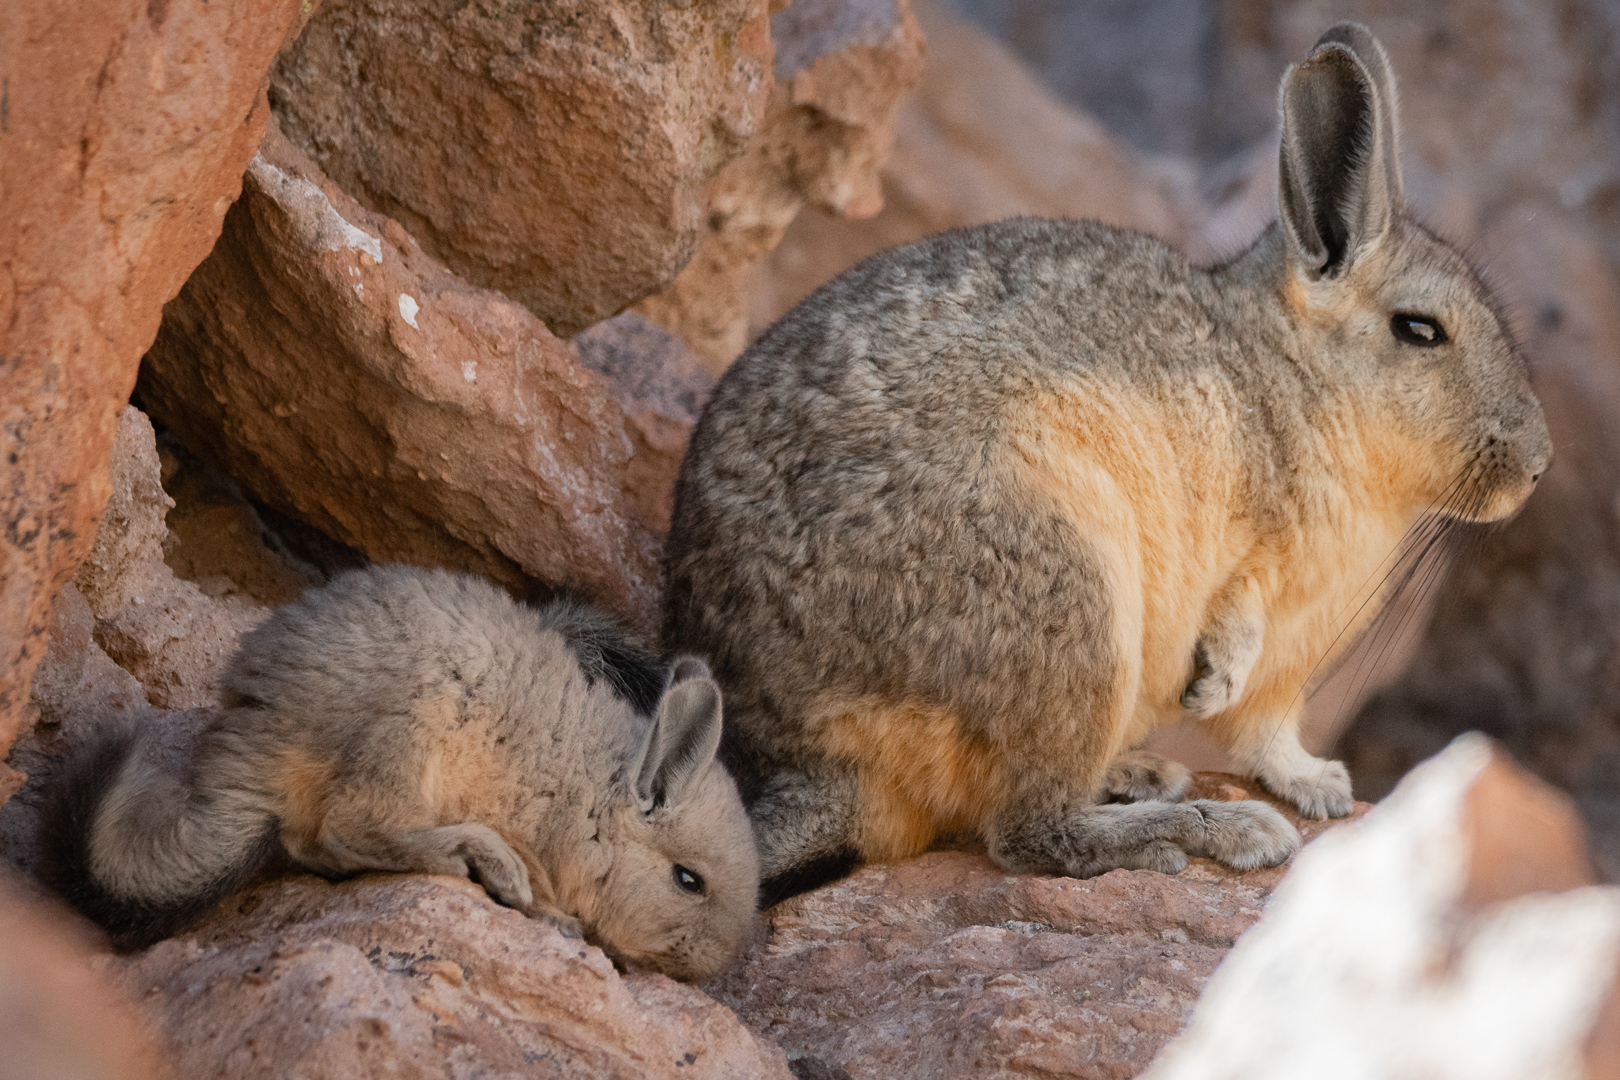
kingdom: Animalia
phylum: Chordata
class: Mammalia
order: Rodentia
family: Chinchillidae
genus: Lagidium
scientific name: Lagidium viscacia
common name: Southern viscacha
